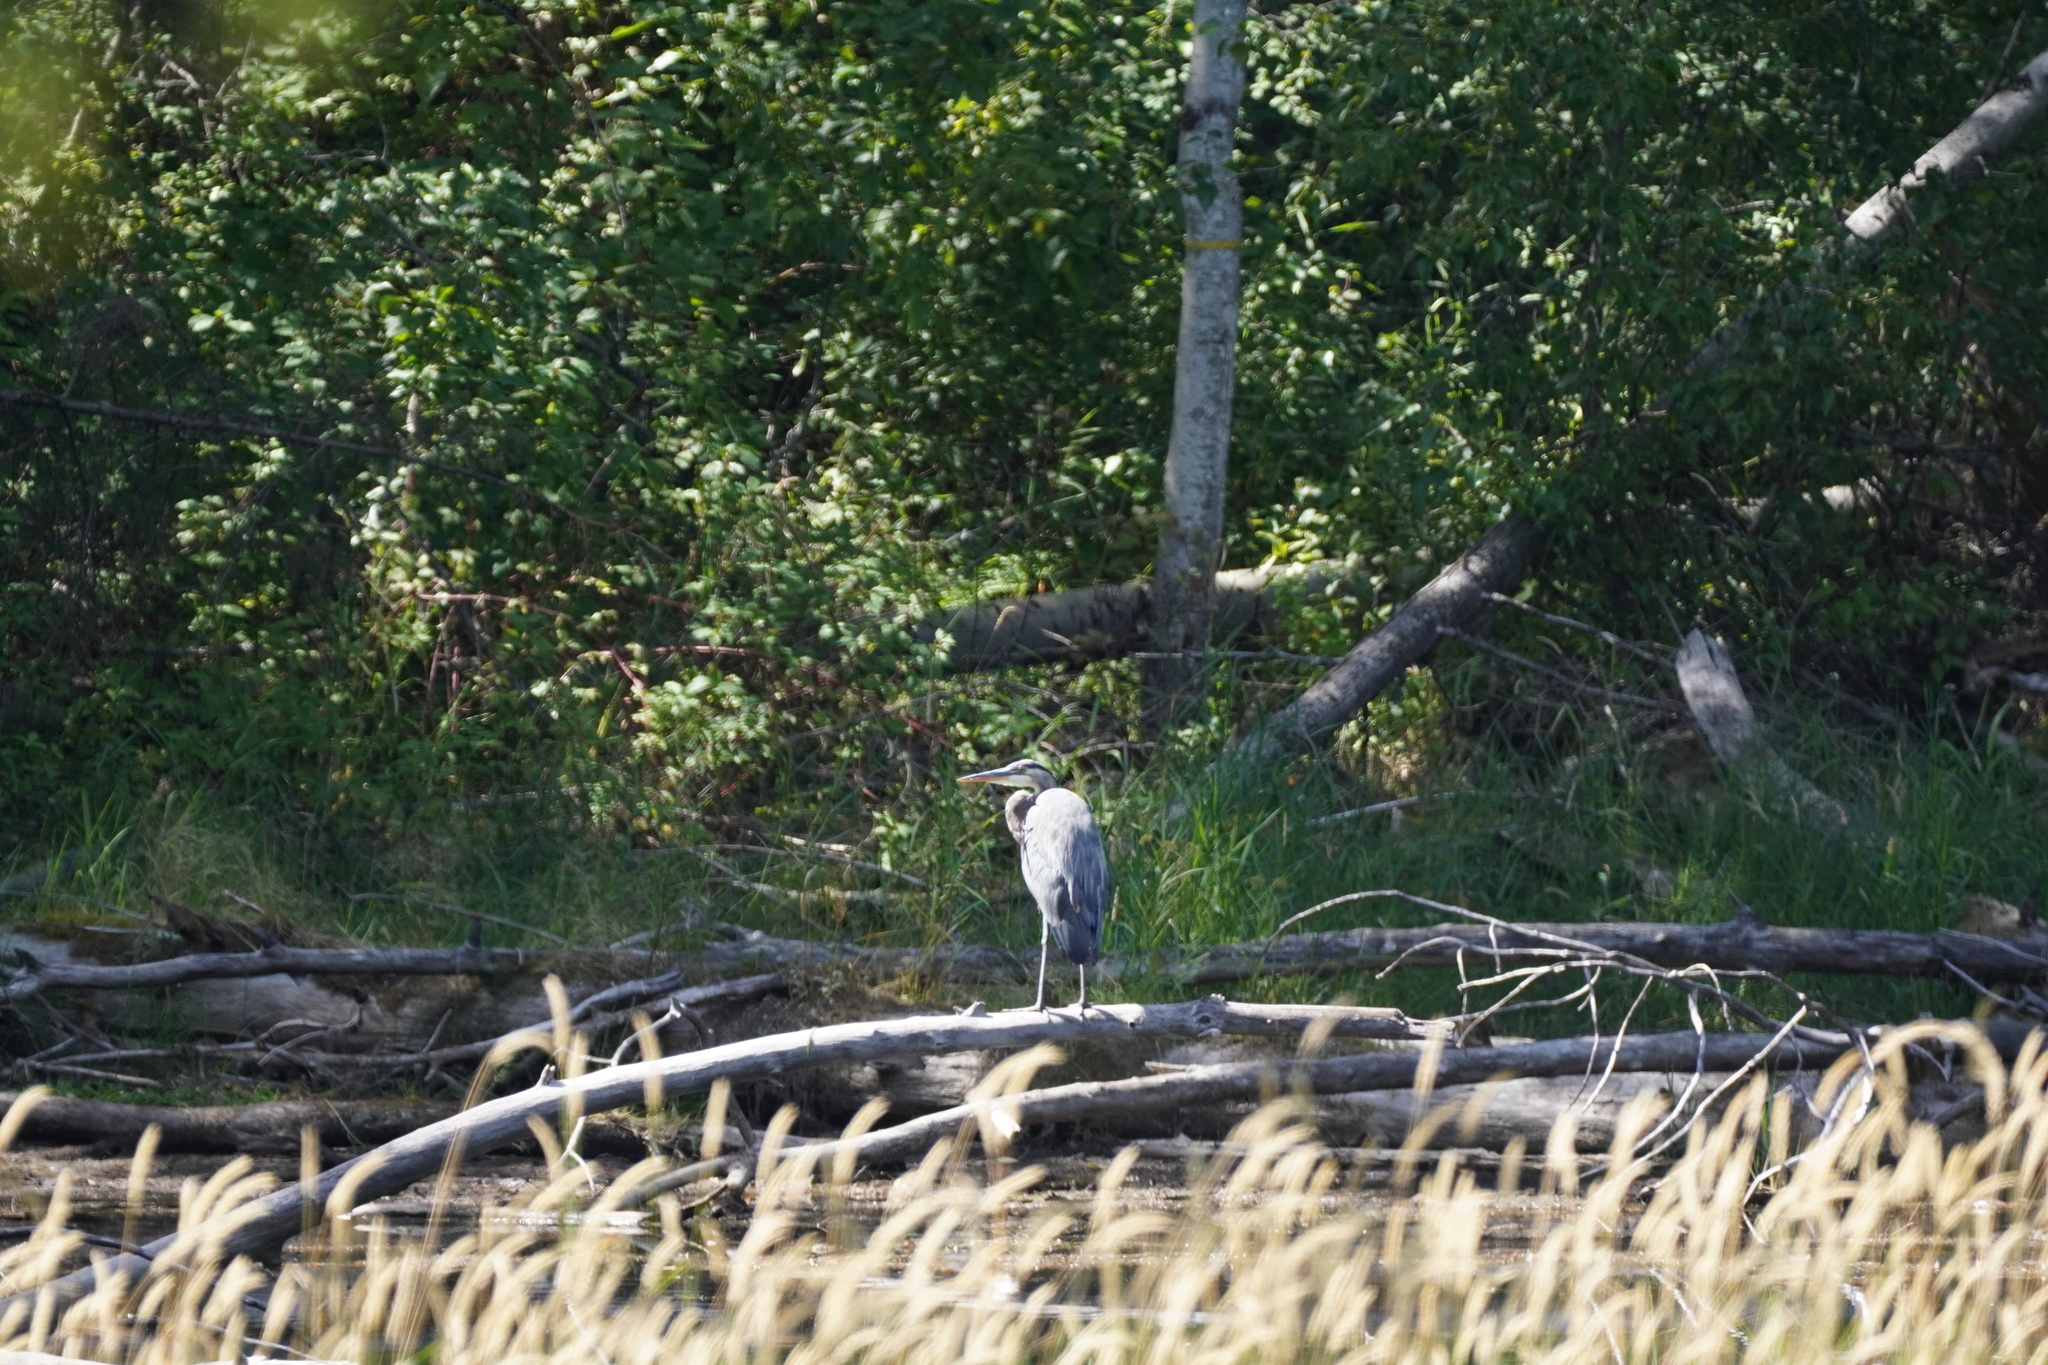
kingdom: Animalia
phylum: Chordata
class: Aves
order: Pelecaniformes
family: Ardeidae
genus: Ardea
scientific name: Ardea herodias
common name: Great blue heron
